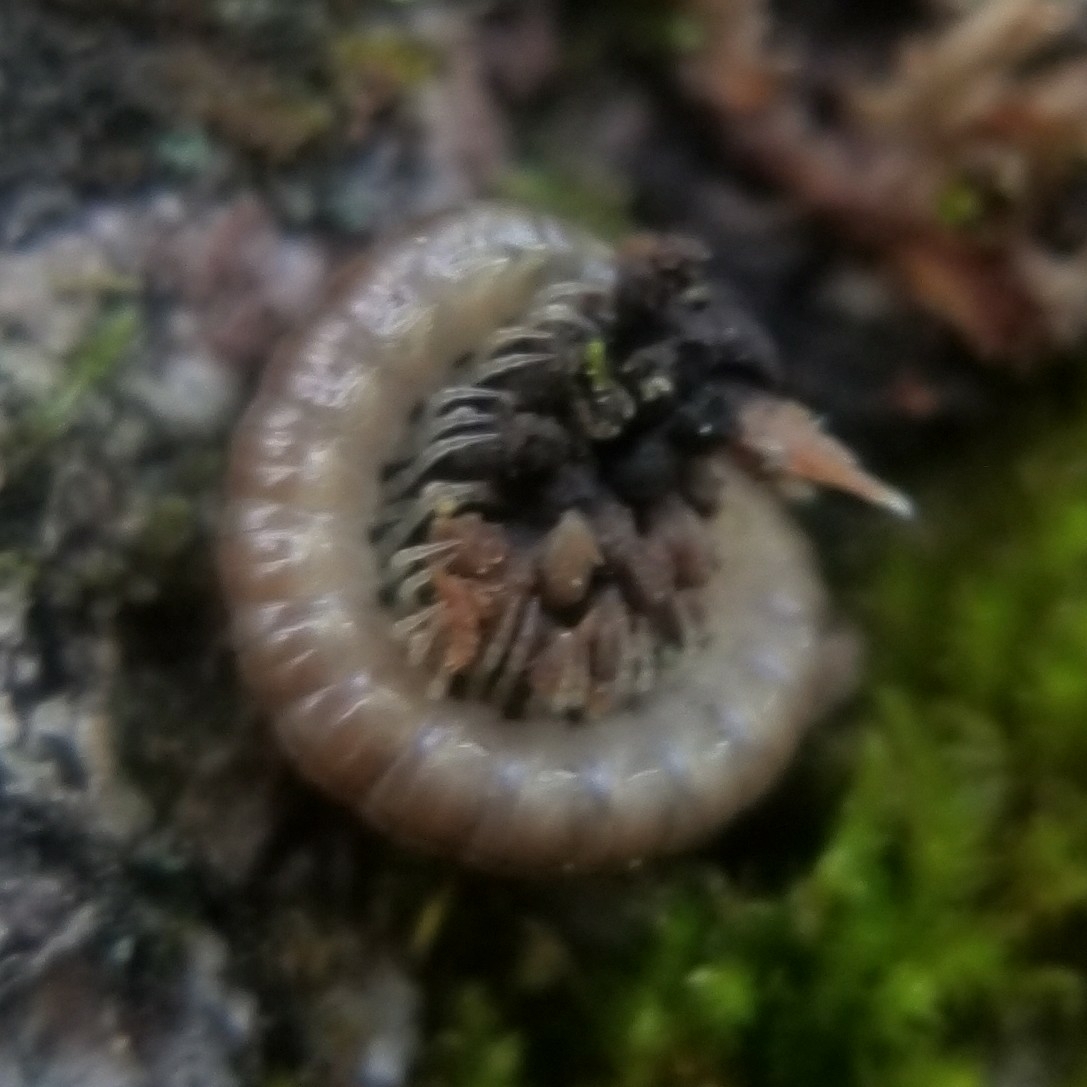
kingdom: Animalia
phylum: Arthropoda
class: Diplopoda
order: Polydesmida
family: Paradoxosomatidae
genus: Oxidus
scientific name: Oxidus gracilis
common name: Greenhouse millipede
